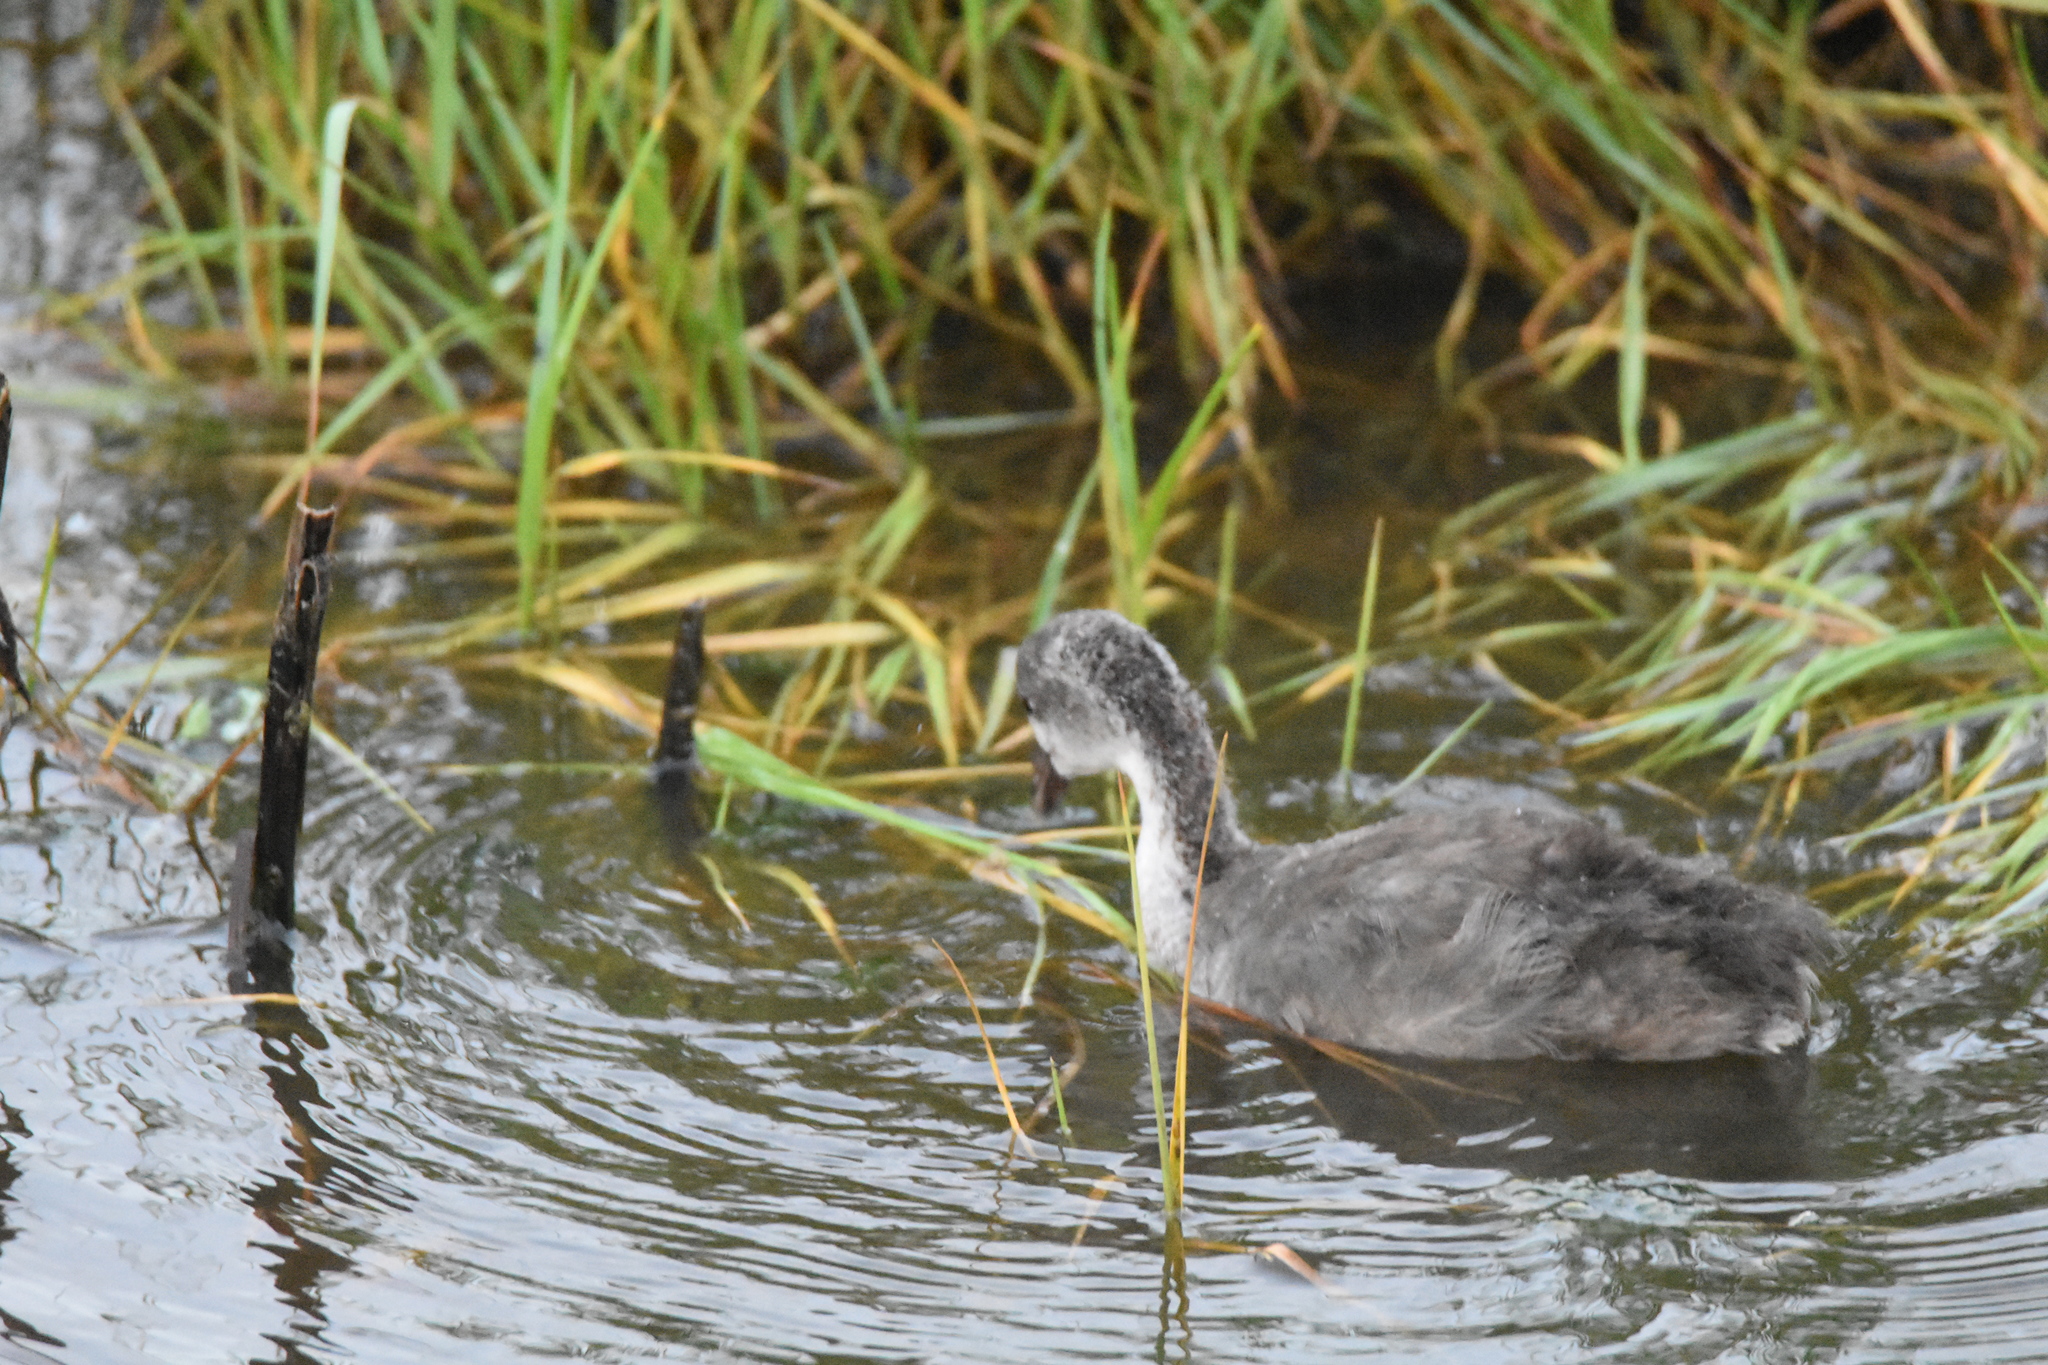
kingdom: Animalia
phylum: Chordata
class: Aves
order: Gruiformes
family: Rallidae
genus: Fulica
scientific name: Fulica americana
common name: American coot
